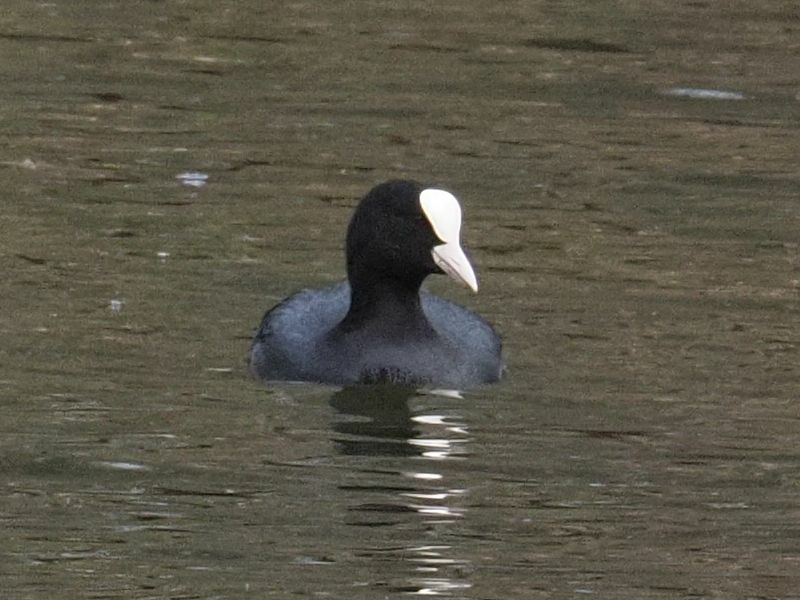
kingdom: Animalia
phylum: Chordata
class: Aves
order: Gruiformes
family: Rallidae
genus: Fulica
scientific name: Fulica atra
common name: Eurasian coot
